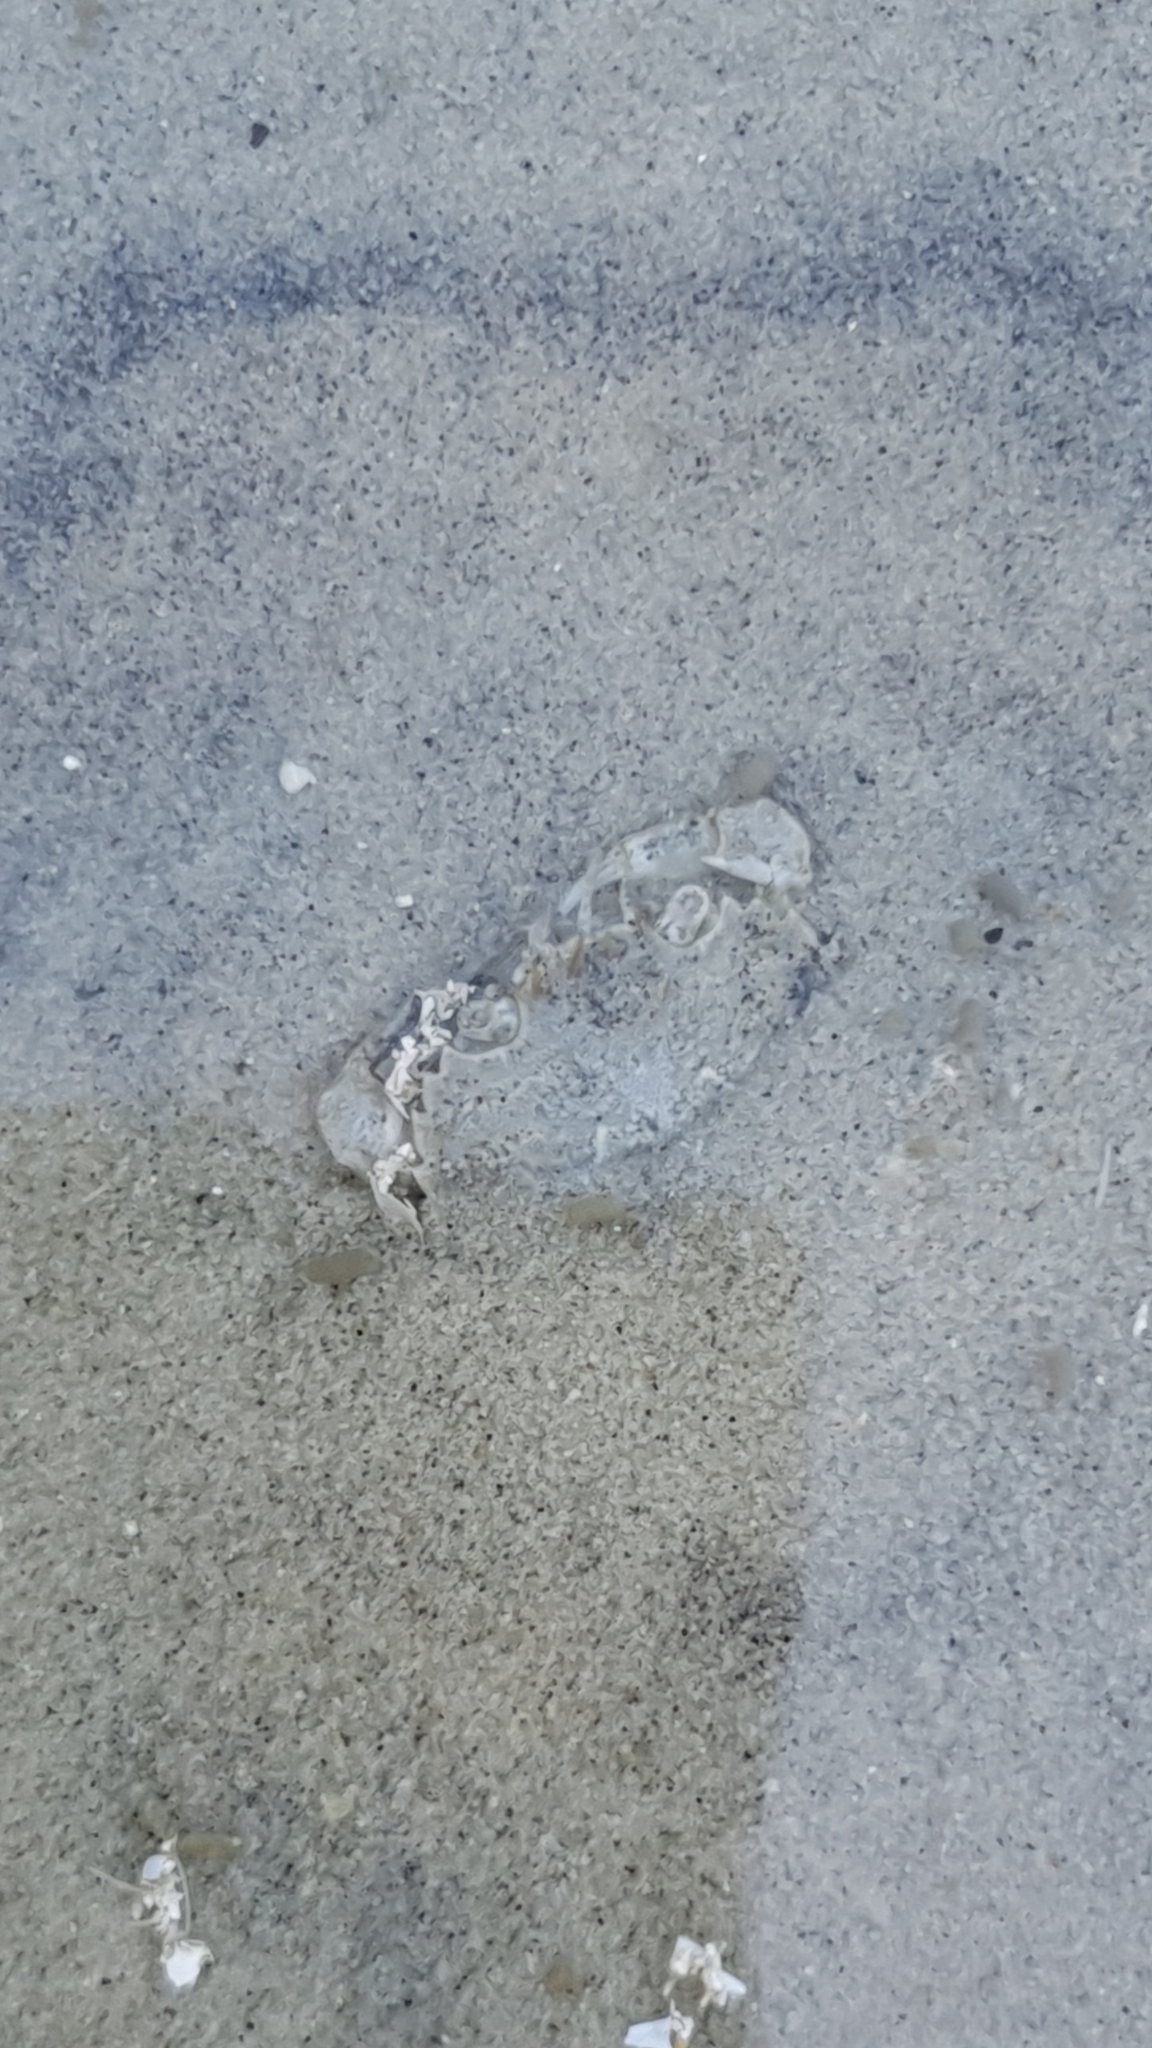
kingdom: Animalia
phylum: Arthropoda
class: Malacostraca
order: Decapoda
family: Carcinidae
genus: Carcinus
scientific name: Carcinus maenas
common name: European green crab
